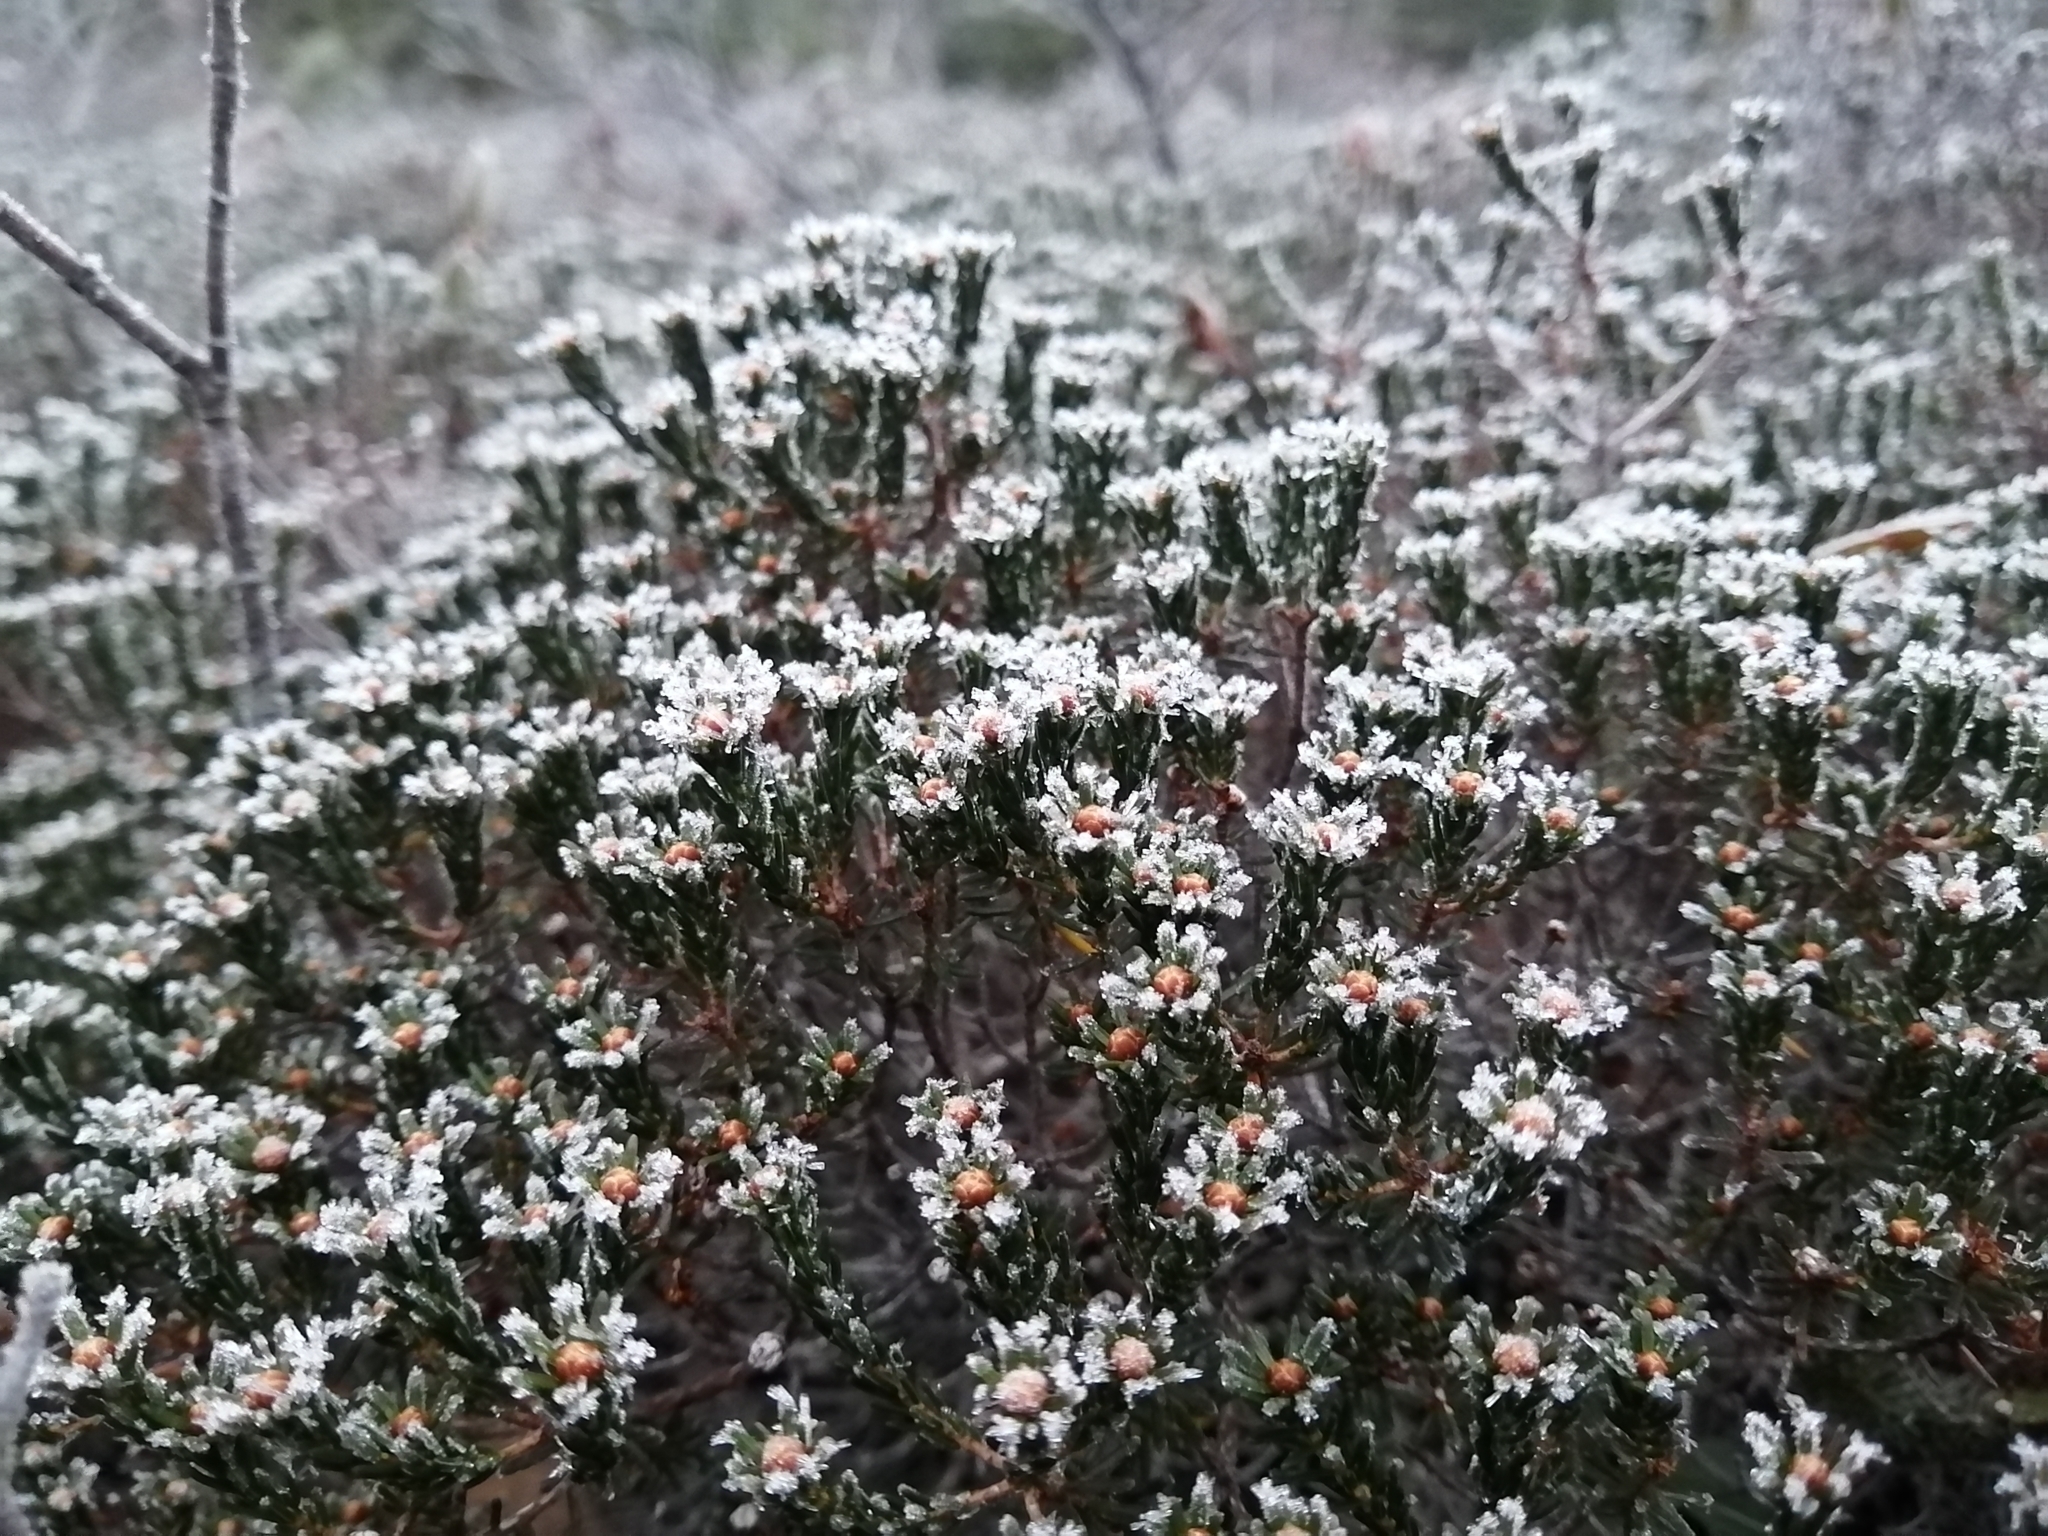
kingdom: Plantae
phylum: Tracheophyta
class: Magnoliopsida
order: Ericales
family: Ericaceae
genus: Corema
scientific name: Corema conradii
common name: Broom-crowberry
